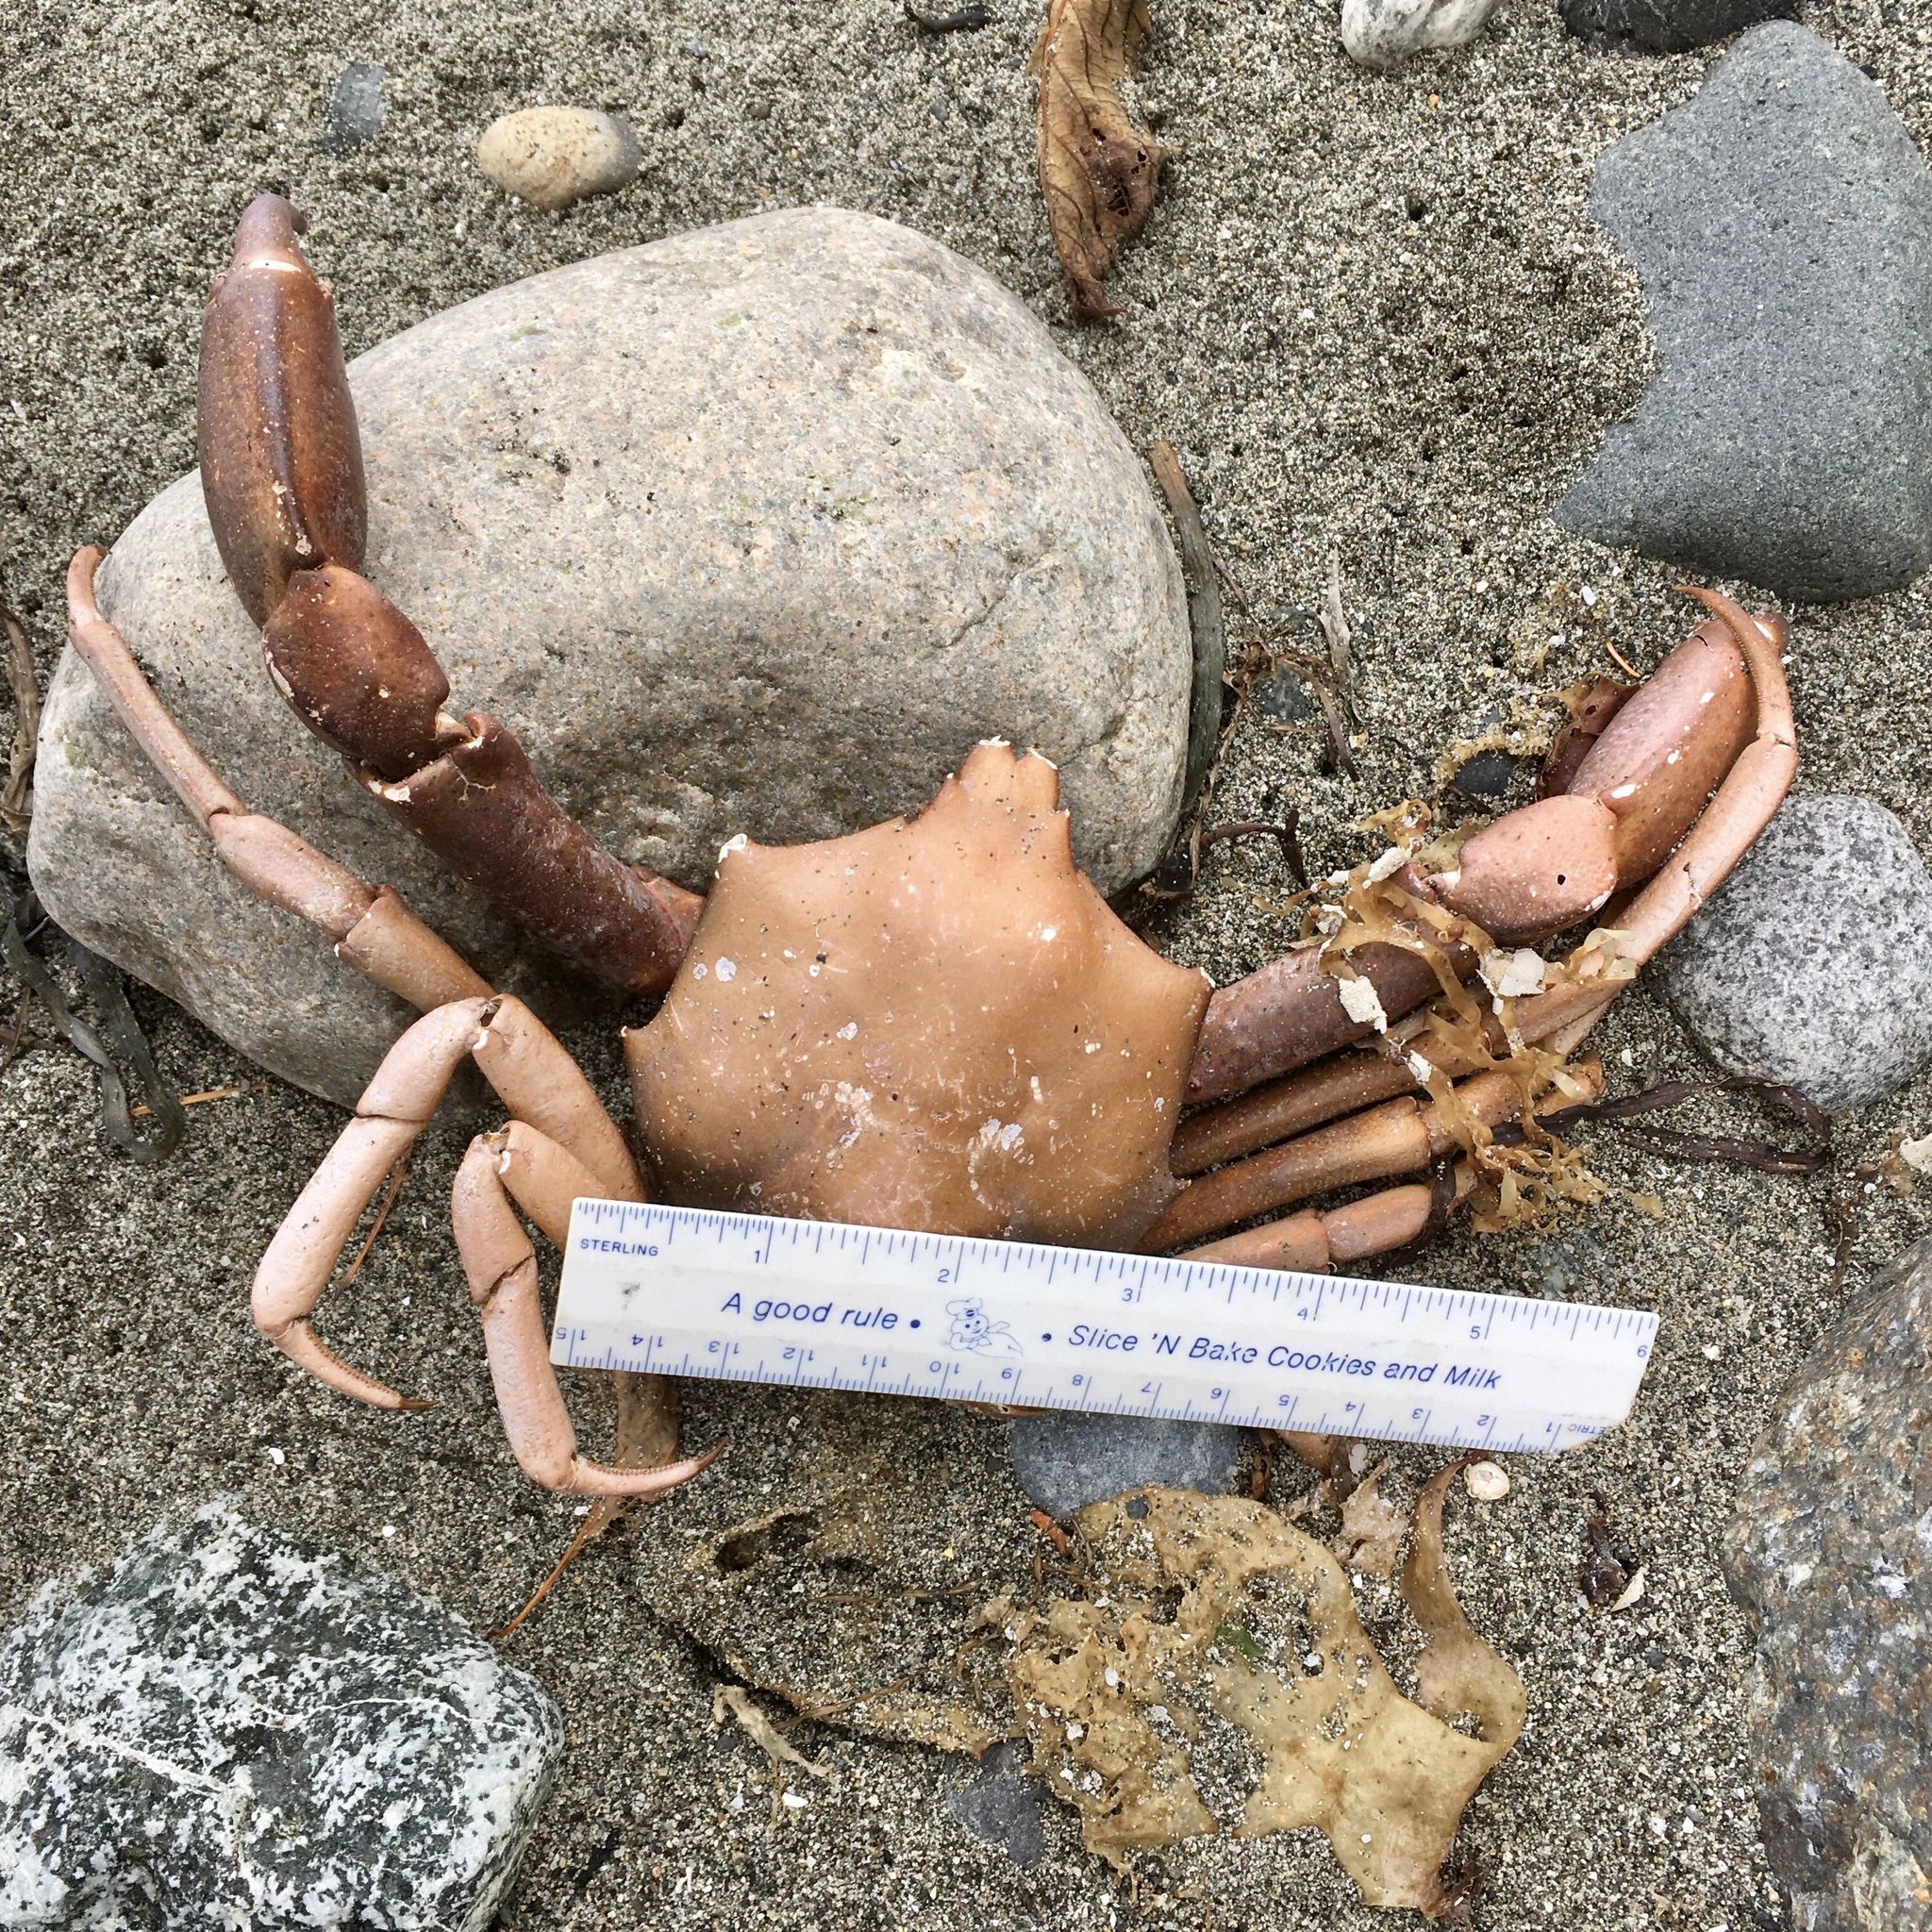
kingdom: Animalia
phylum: Arthropoda
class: Malacostraca
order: Decapoda
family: Epialtidae
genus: Pugettia
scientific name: Pugettia producta
